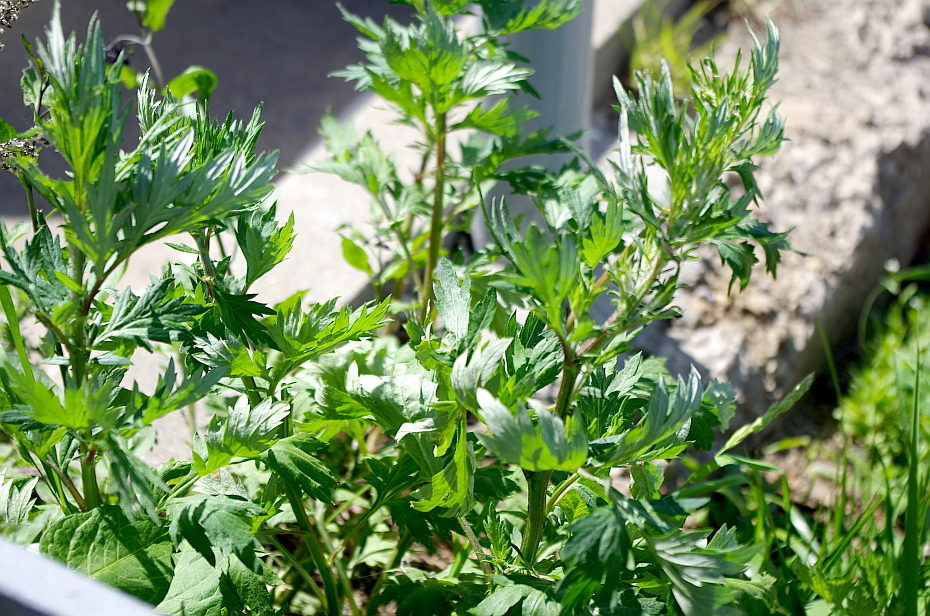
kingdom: Plantae
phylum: Tracheophyta
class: Magnoliopsida
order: Asterales
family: Asteraceae
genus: Artemisia
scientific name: Artemisia vulgaris
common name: Mugwort
